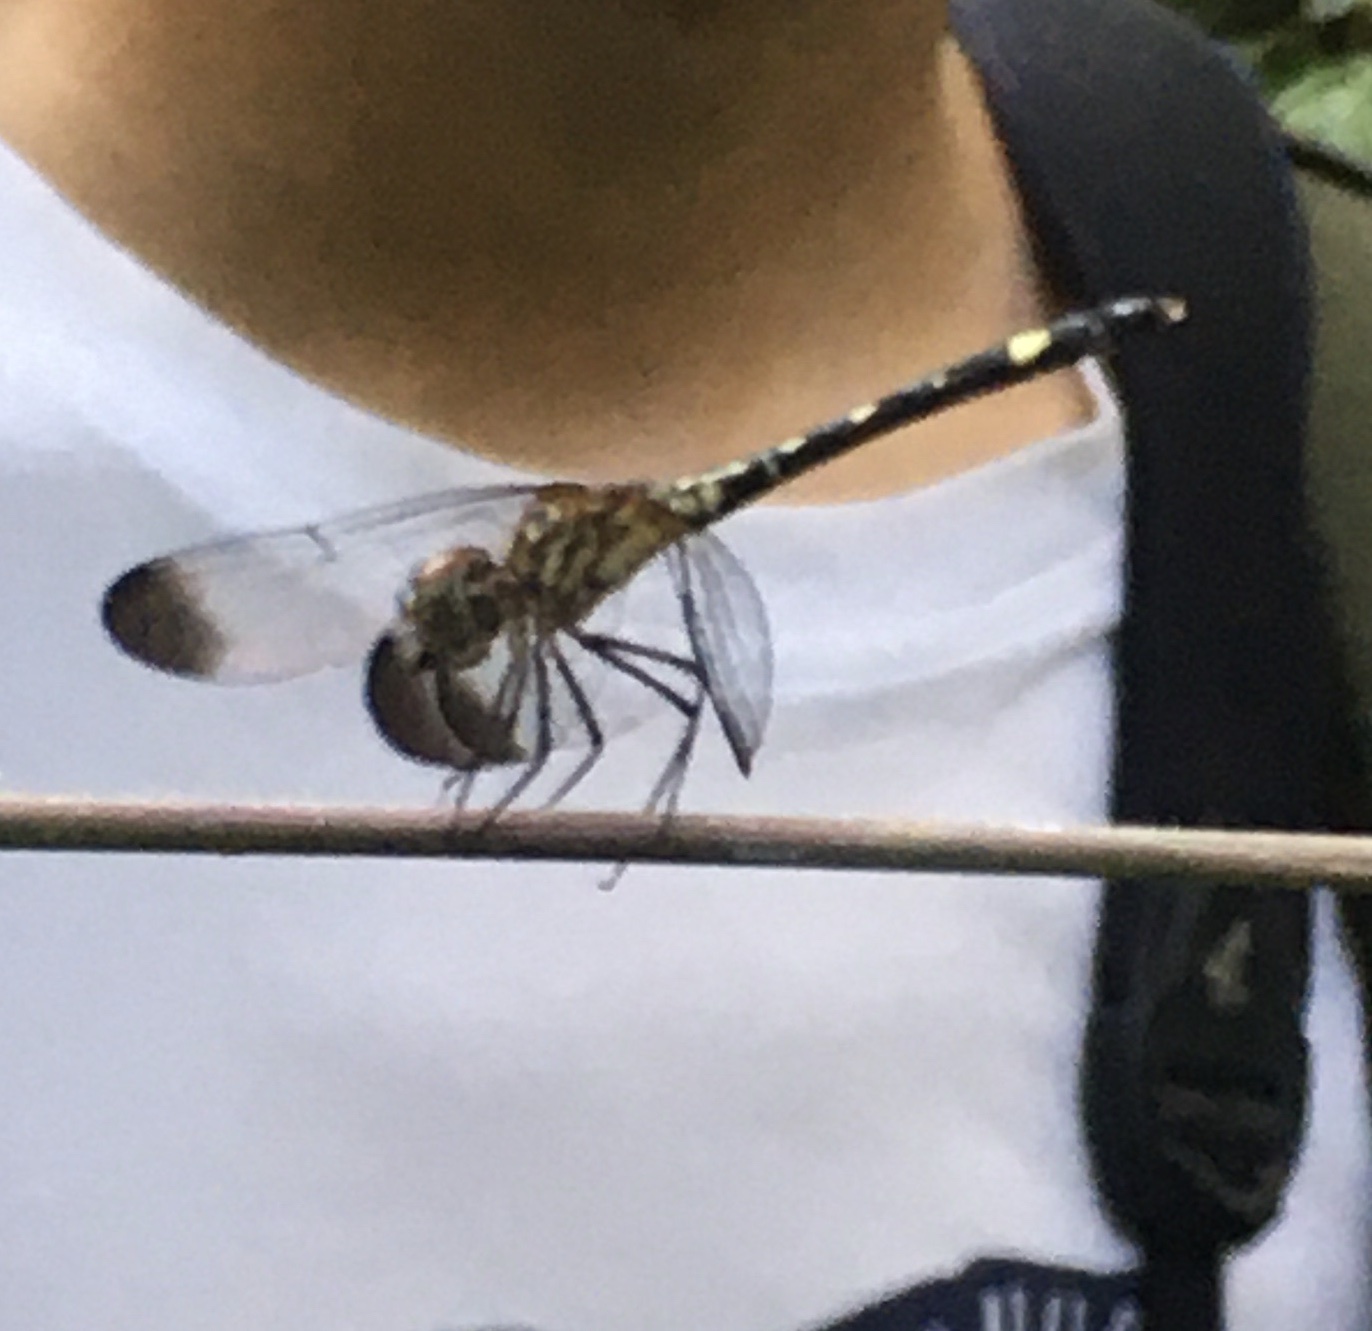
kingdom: Animalia
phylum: Arthropoda
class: Insecta
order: Odonata
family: Libellulidae
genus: Dythemis
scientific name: Dythemis nigra
